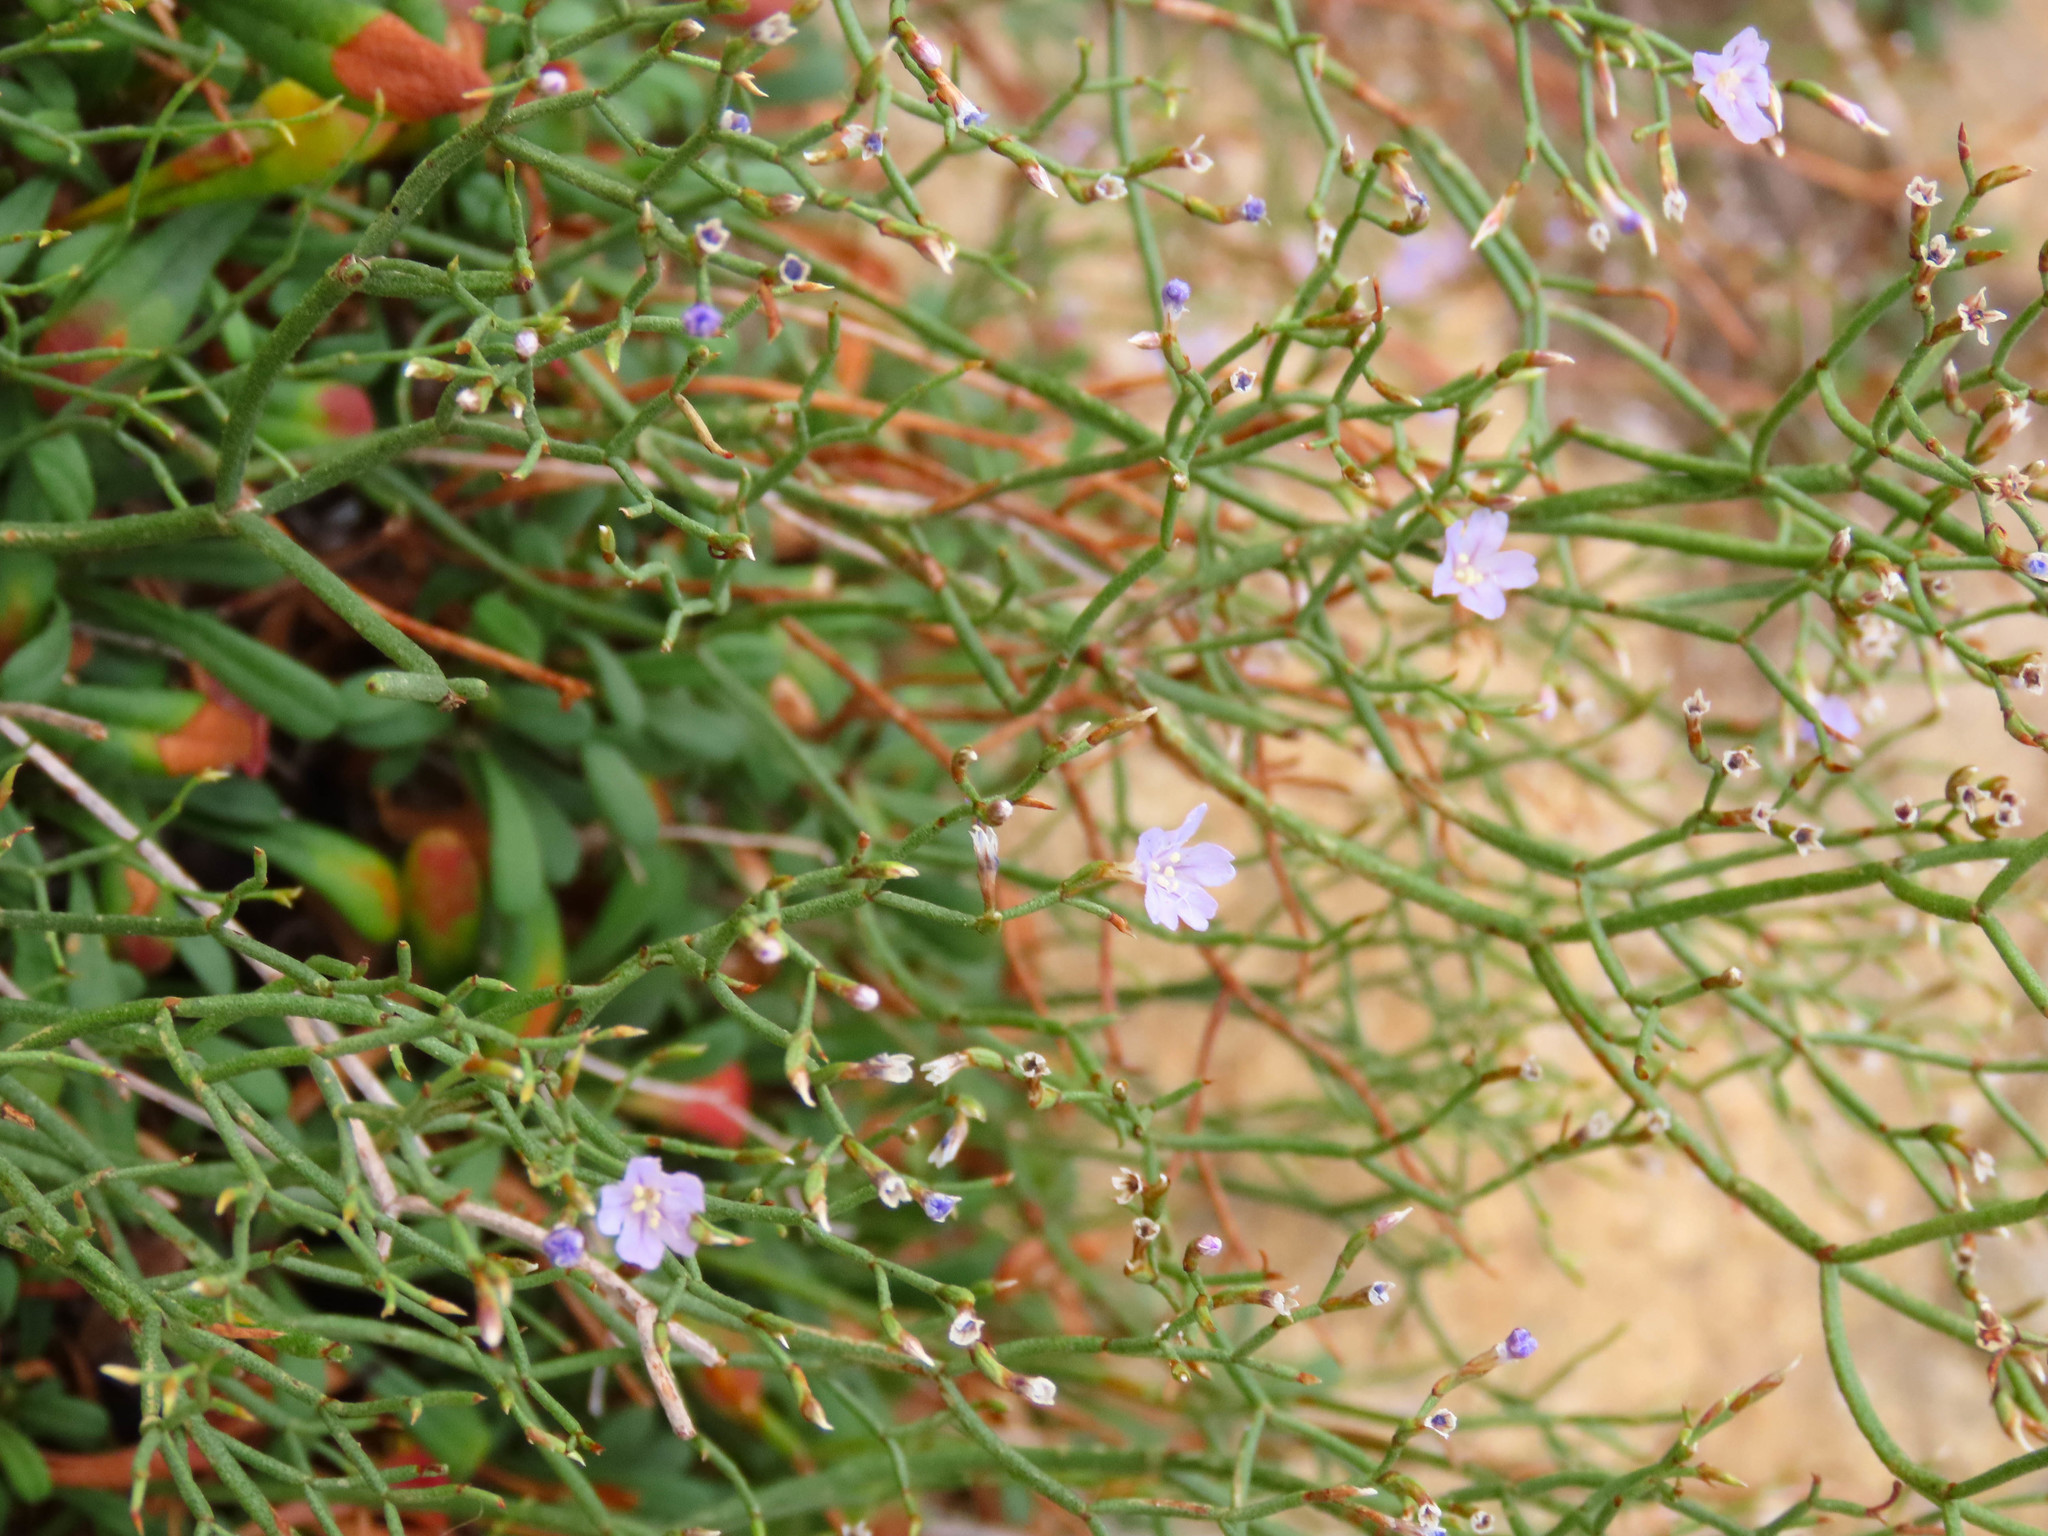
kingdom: Plantae
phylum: Tracheophyta
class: Magnoliopsida
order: Caryophyllales
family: Plumbaginaceae
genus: Limonium
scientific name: Limonium ilvae
